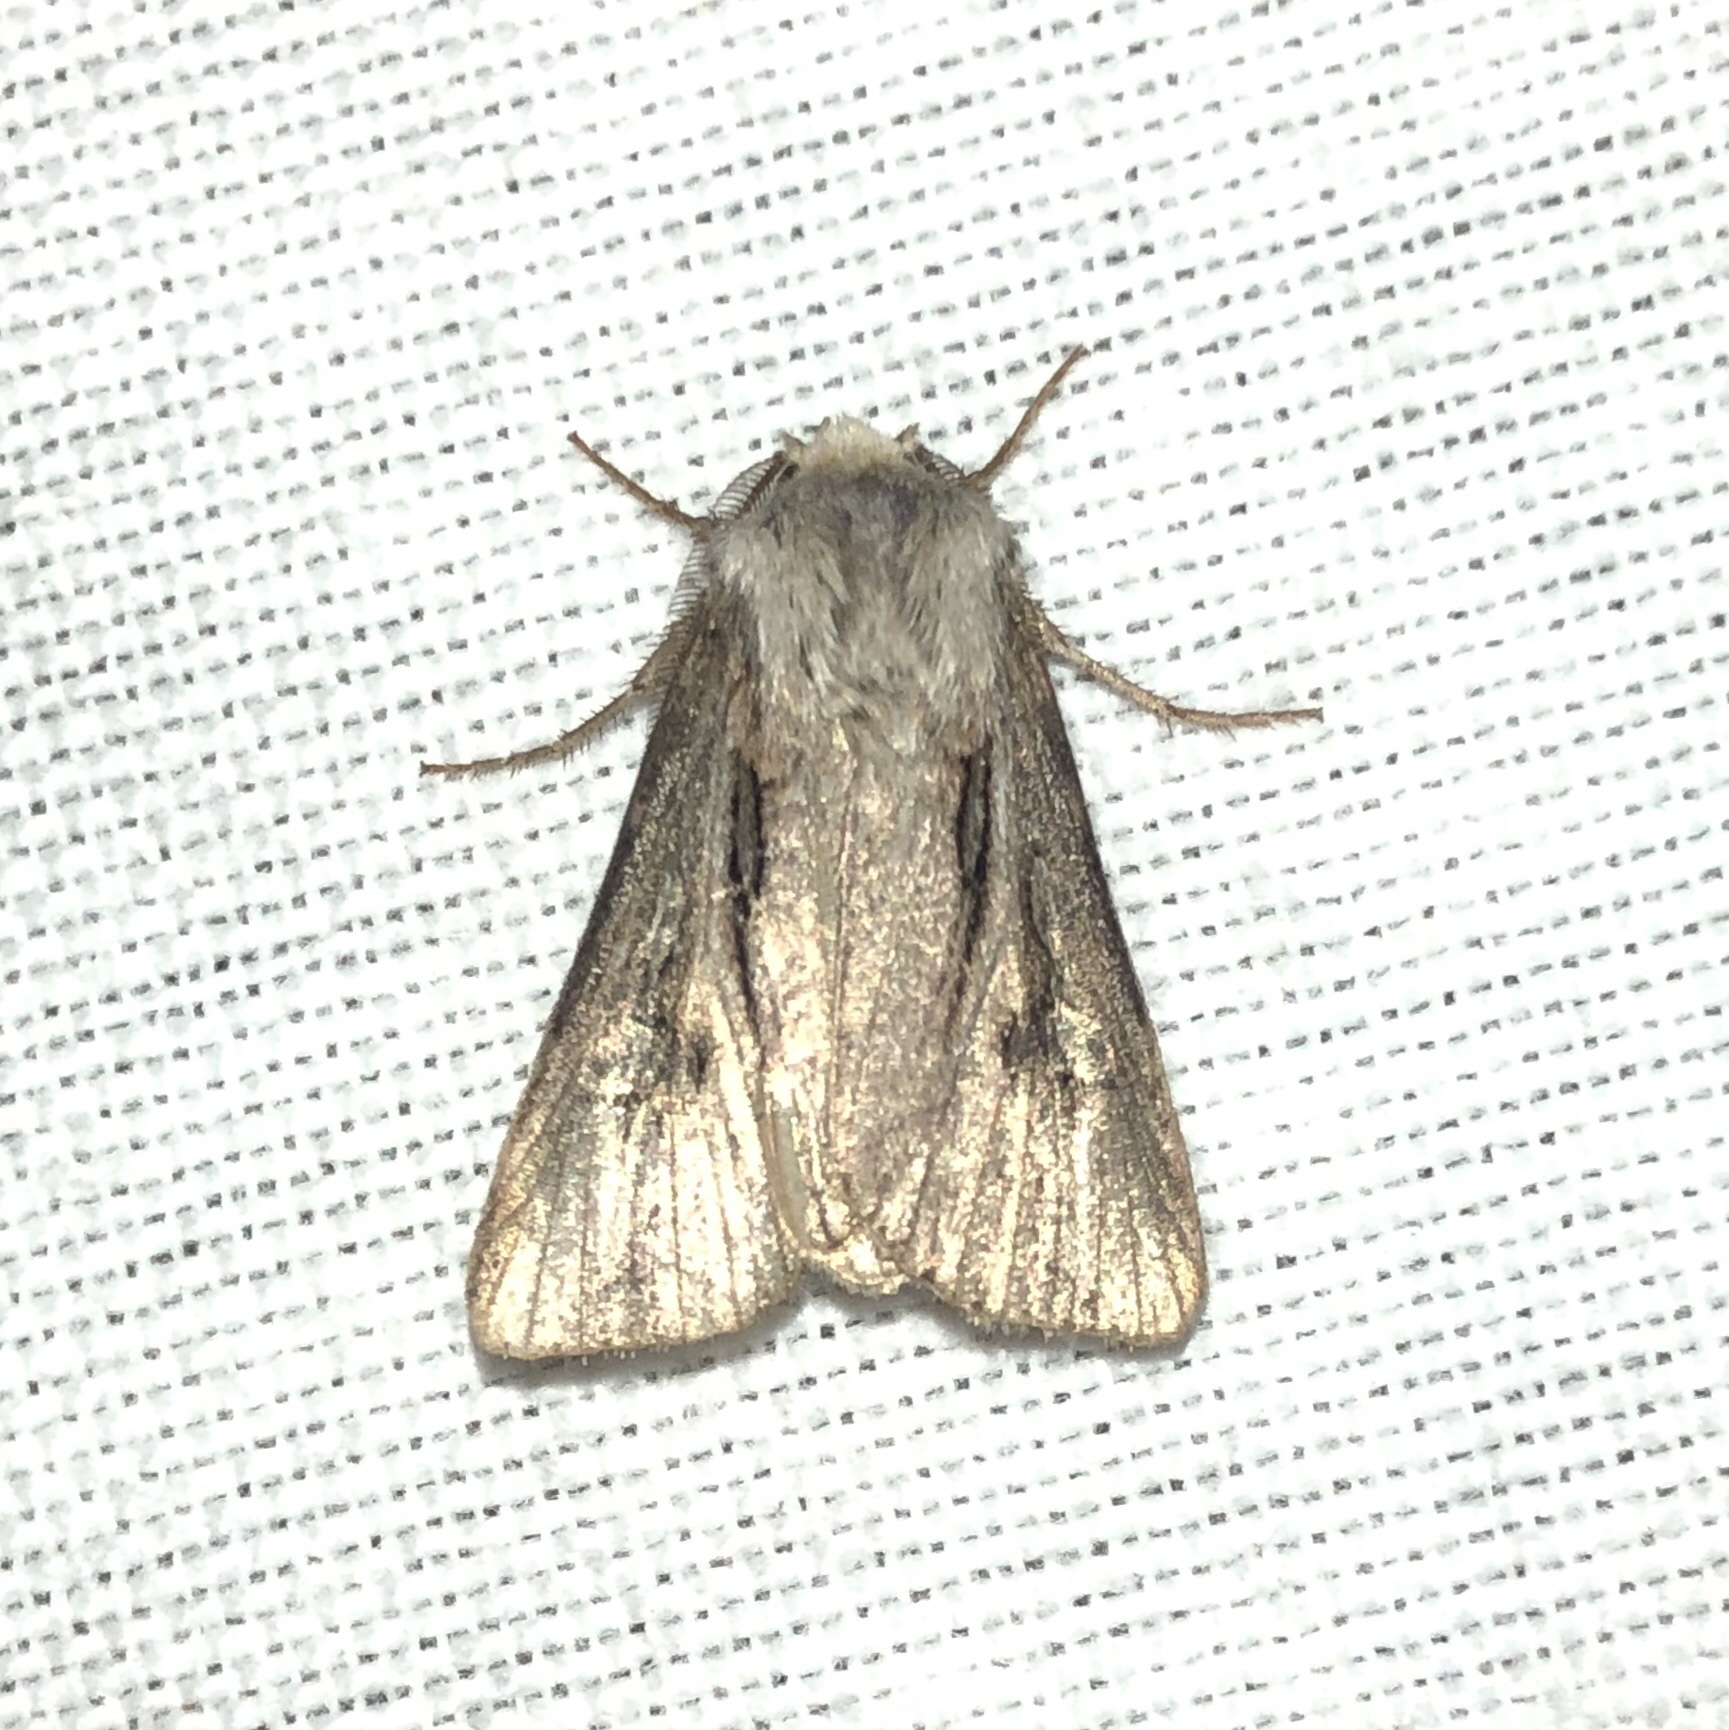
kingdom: Animalia
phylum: Arthropoda
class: Insecta
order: Lepidoptera
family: Noctuidae
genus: Agrotis
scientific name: Agrotis venerabilis
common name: Venerable dart
